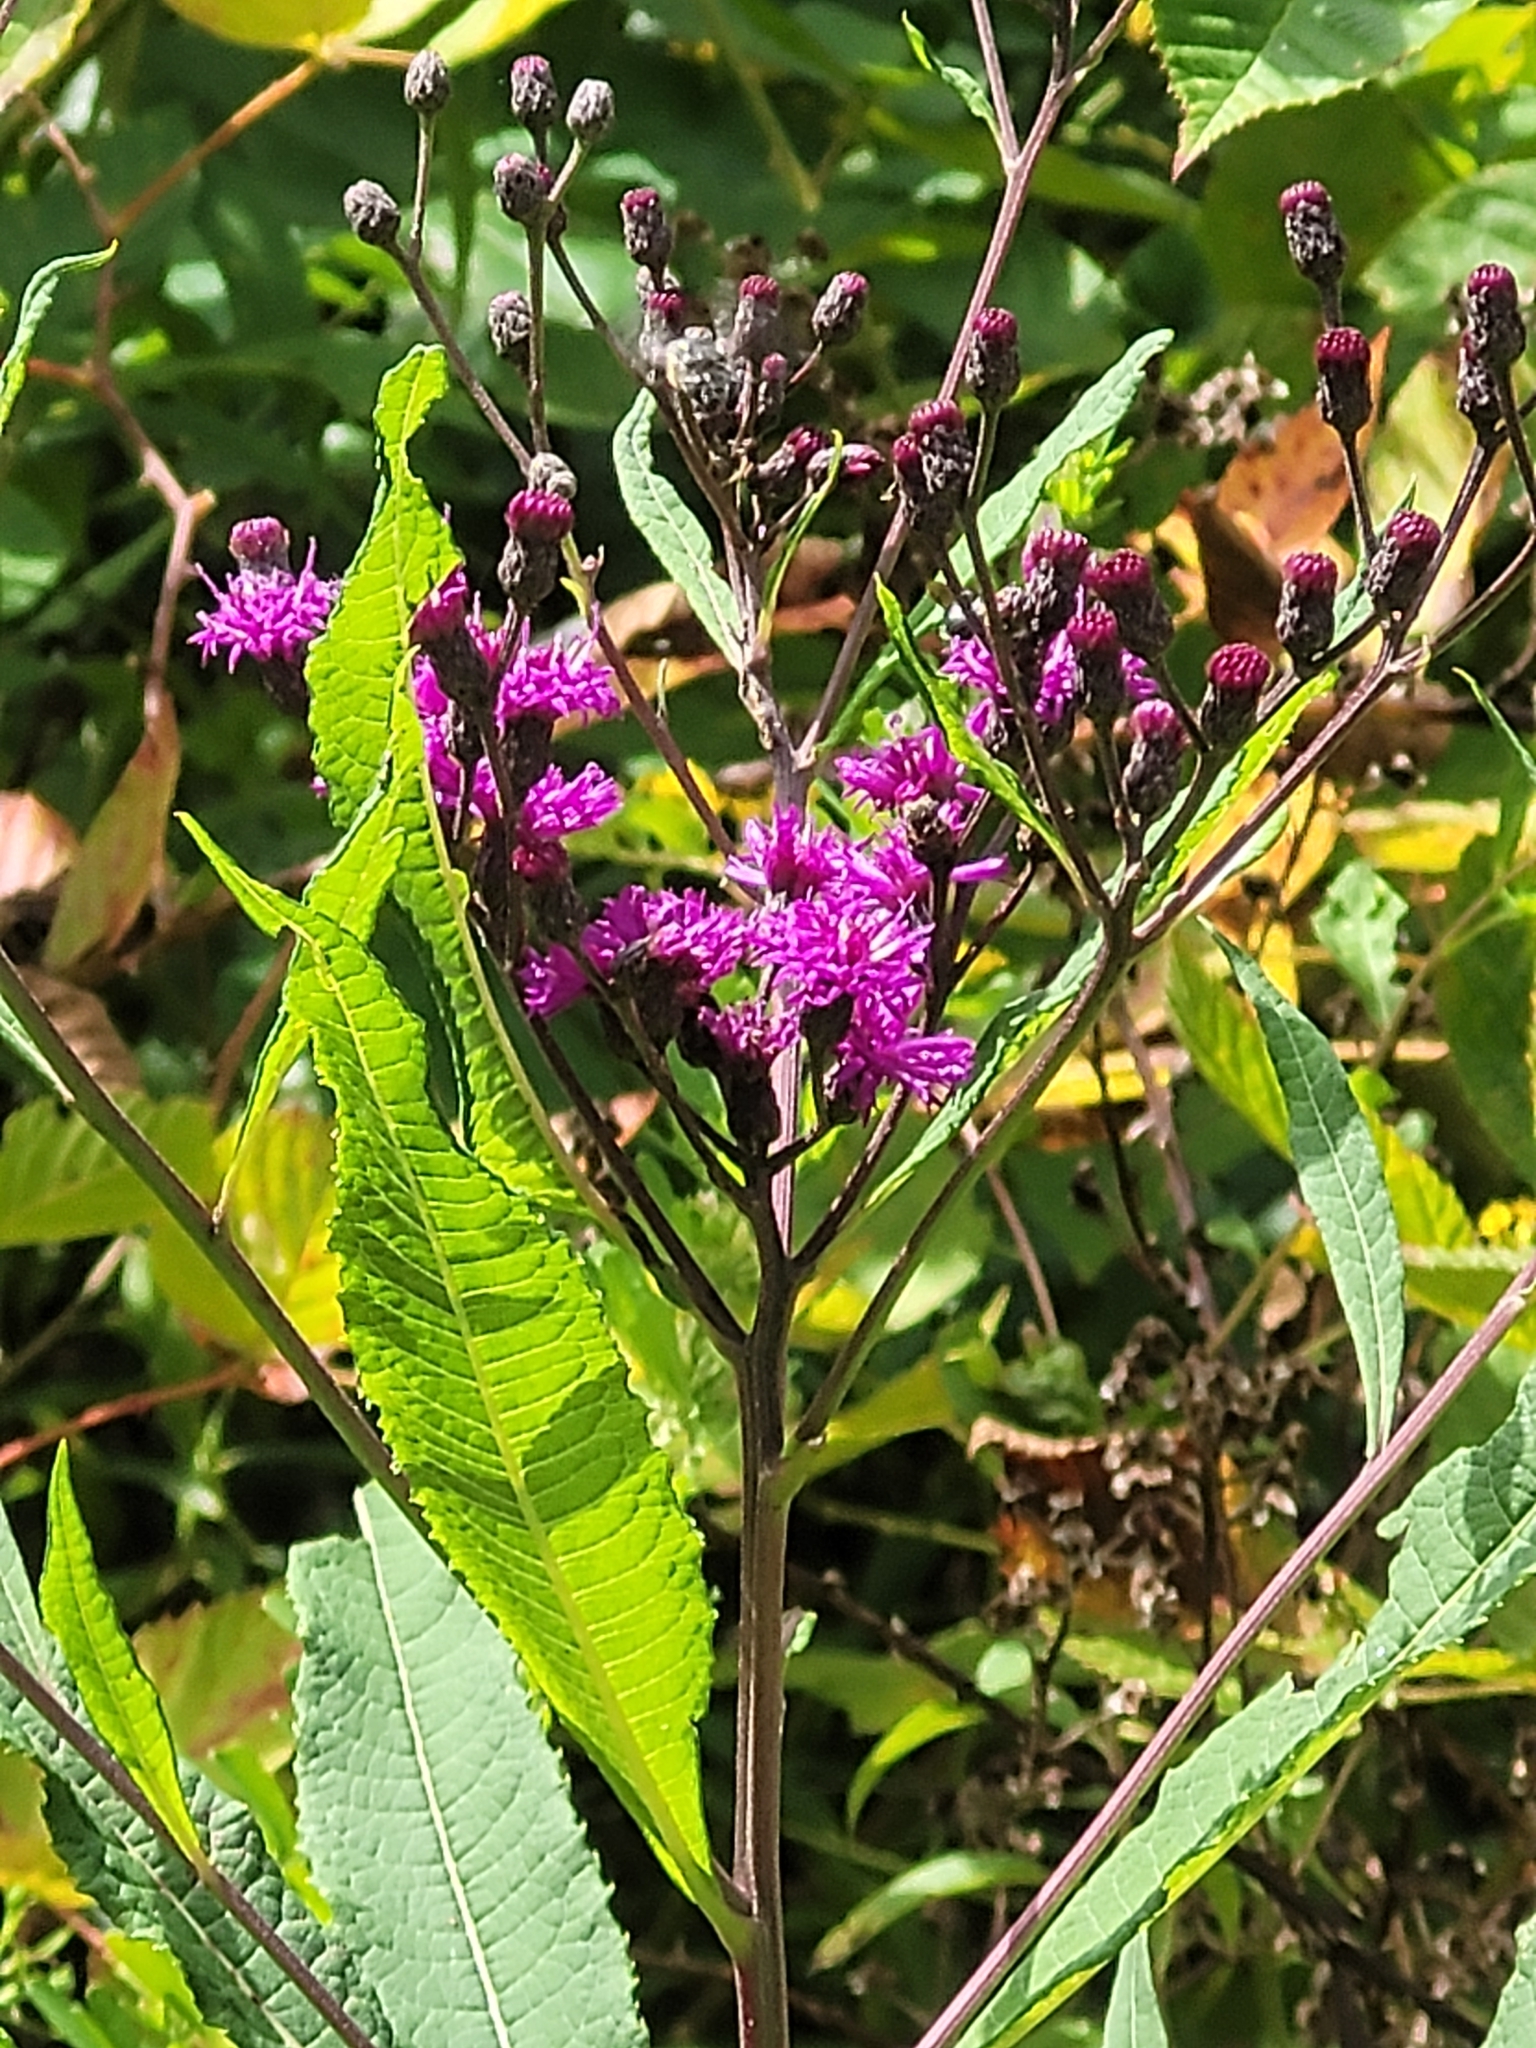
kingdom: Plantae
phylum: Tracheophyta
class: Magnoliopsida
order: Asterales
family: Asteraceae
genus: Vernonia
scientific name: Vernonia gigantea
